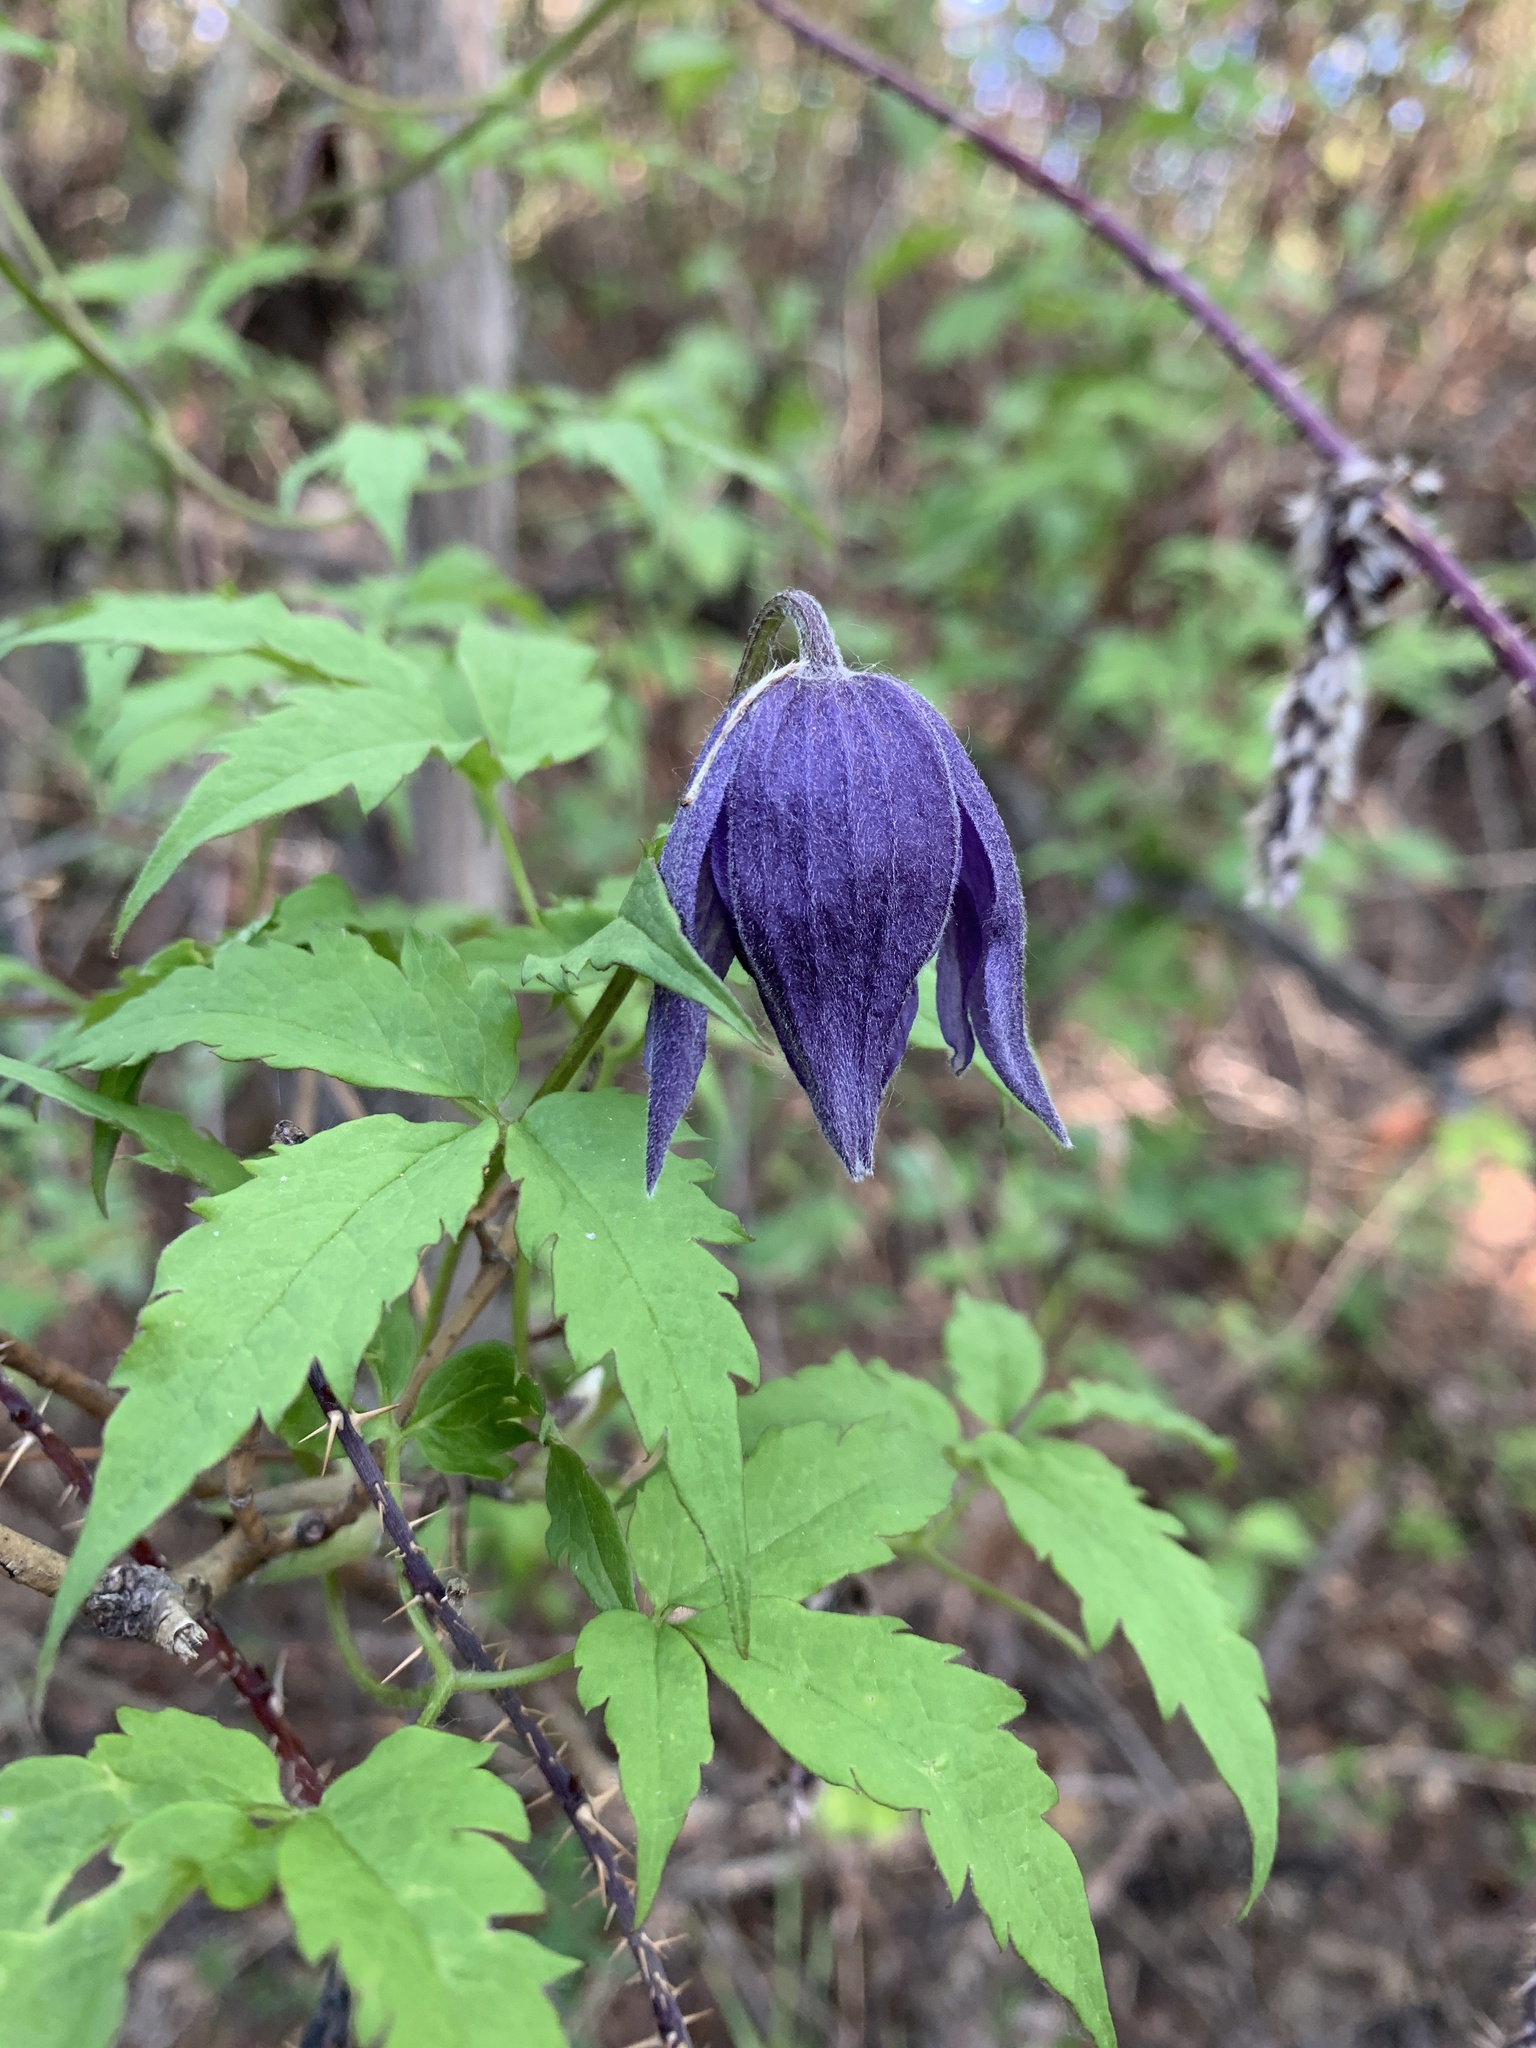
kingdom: Plantae
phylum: Tracheophyta
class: Magnoliopsida
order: Ranunculales
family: Ranunculaceae
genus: Clematis
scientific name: Clematis alpina
